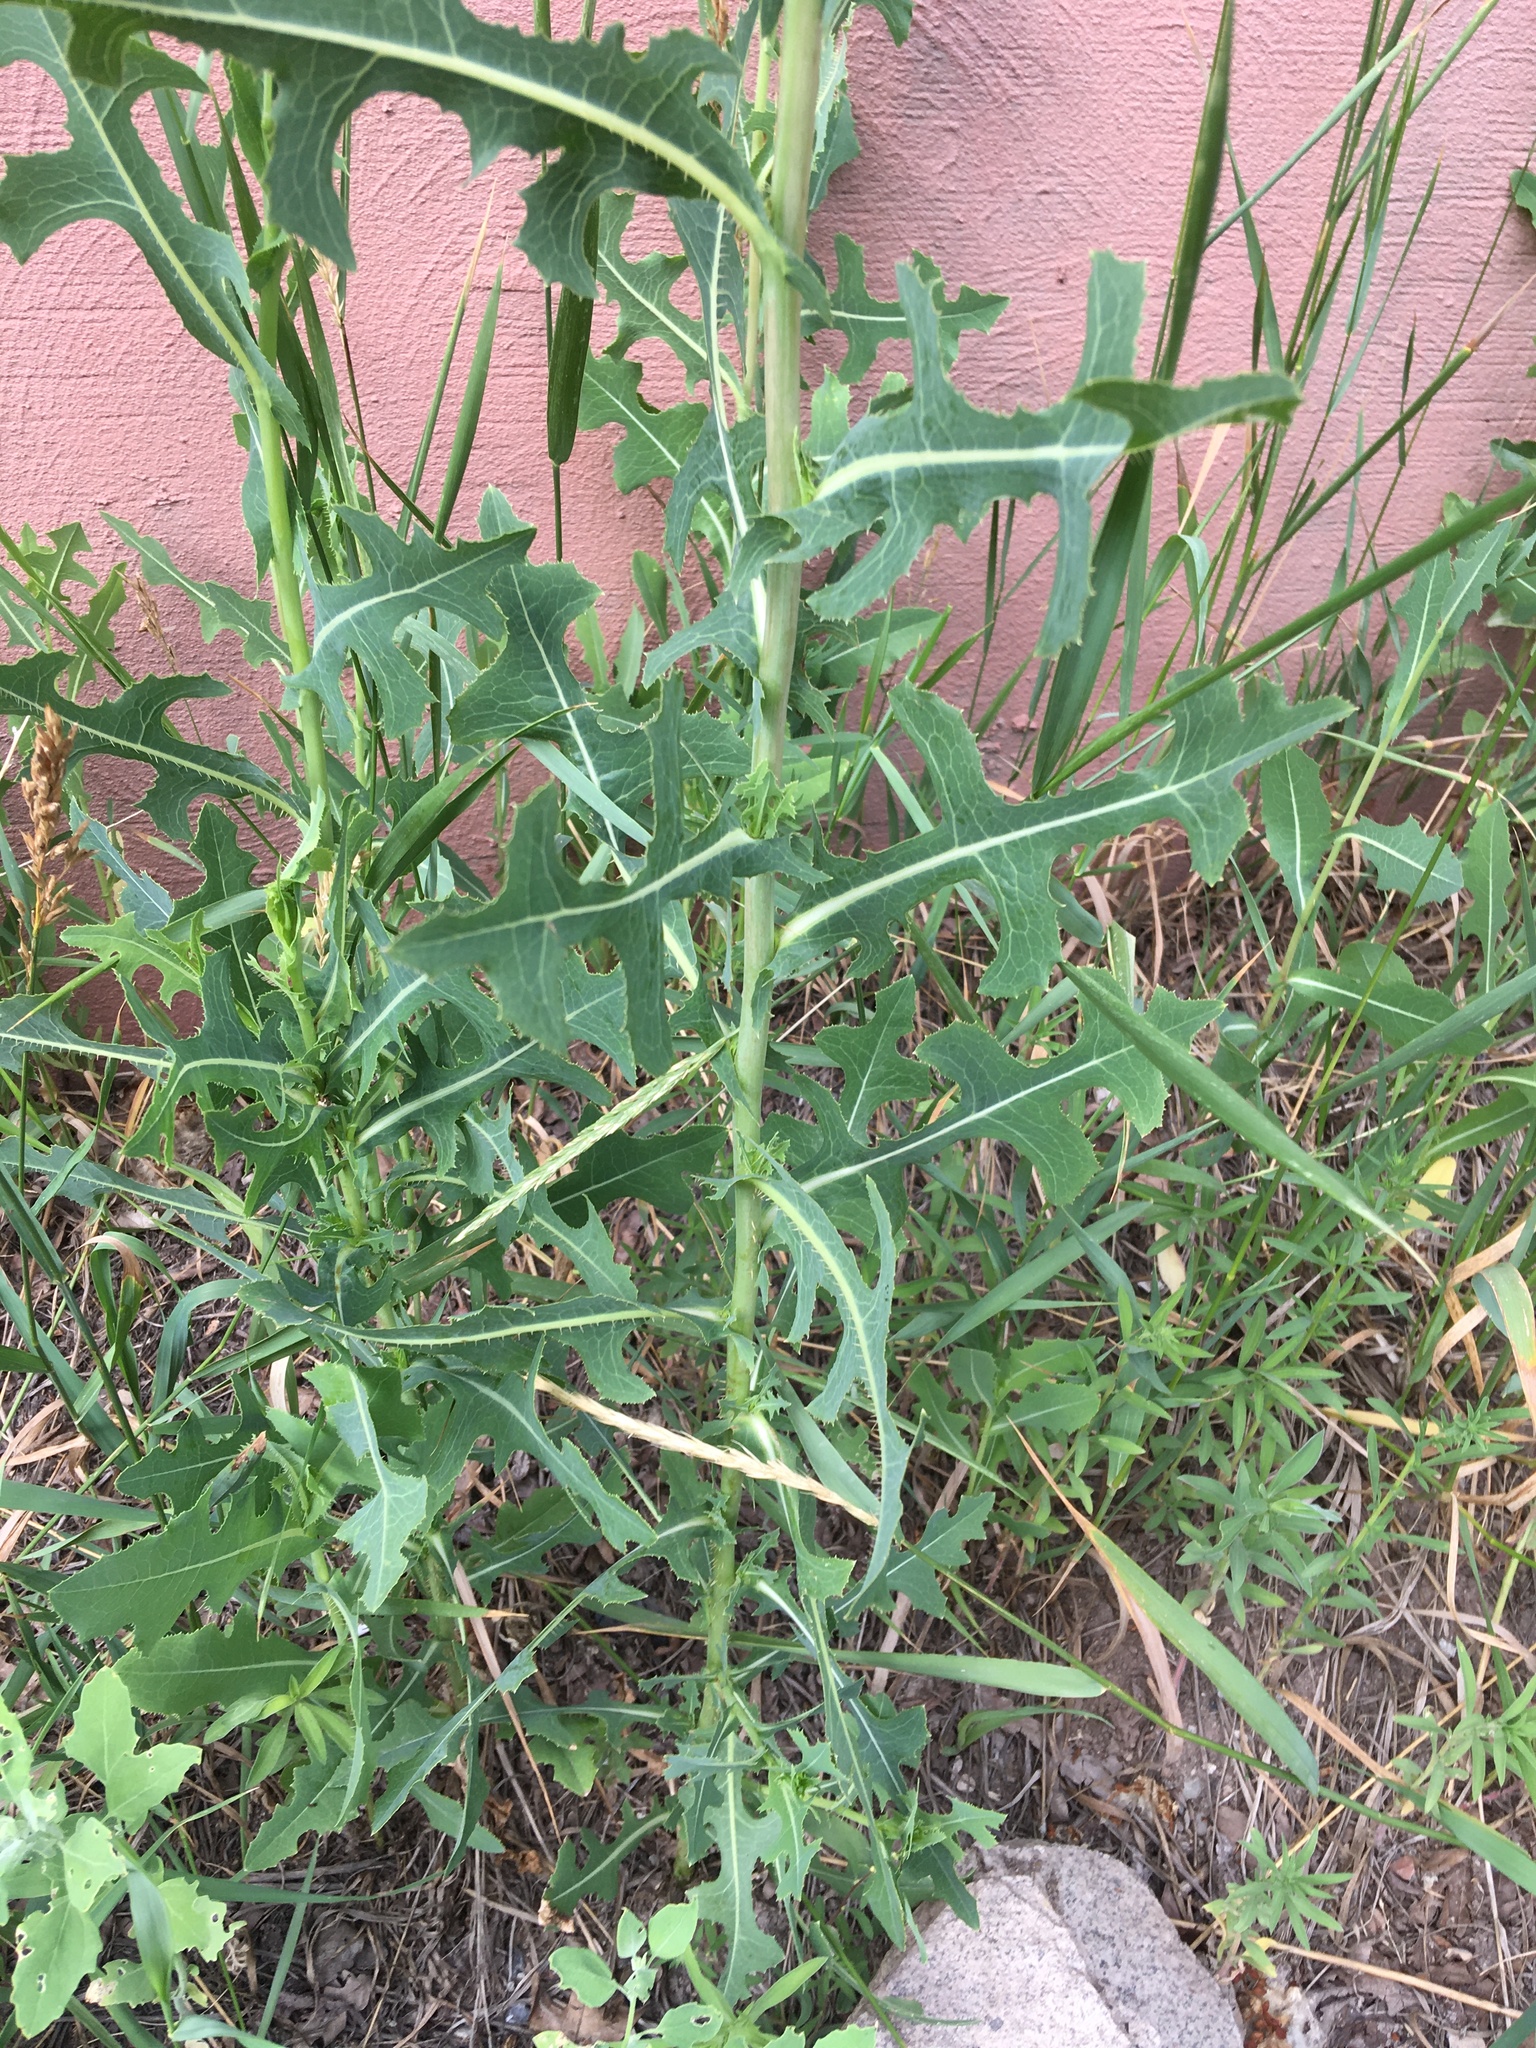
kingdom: Plantae
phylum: Tracheophyta
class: Magnoliopsida
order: Asterales
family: Asteraceae
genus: Lactuca
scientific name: Lactuca serriola
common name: Prickly lettuce
